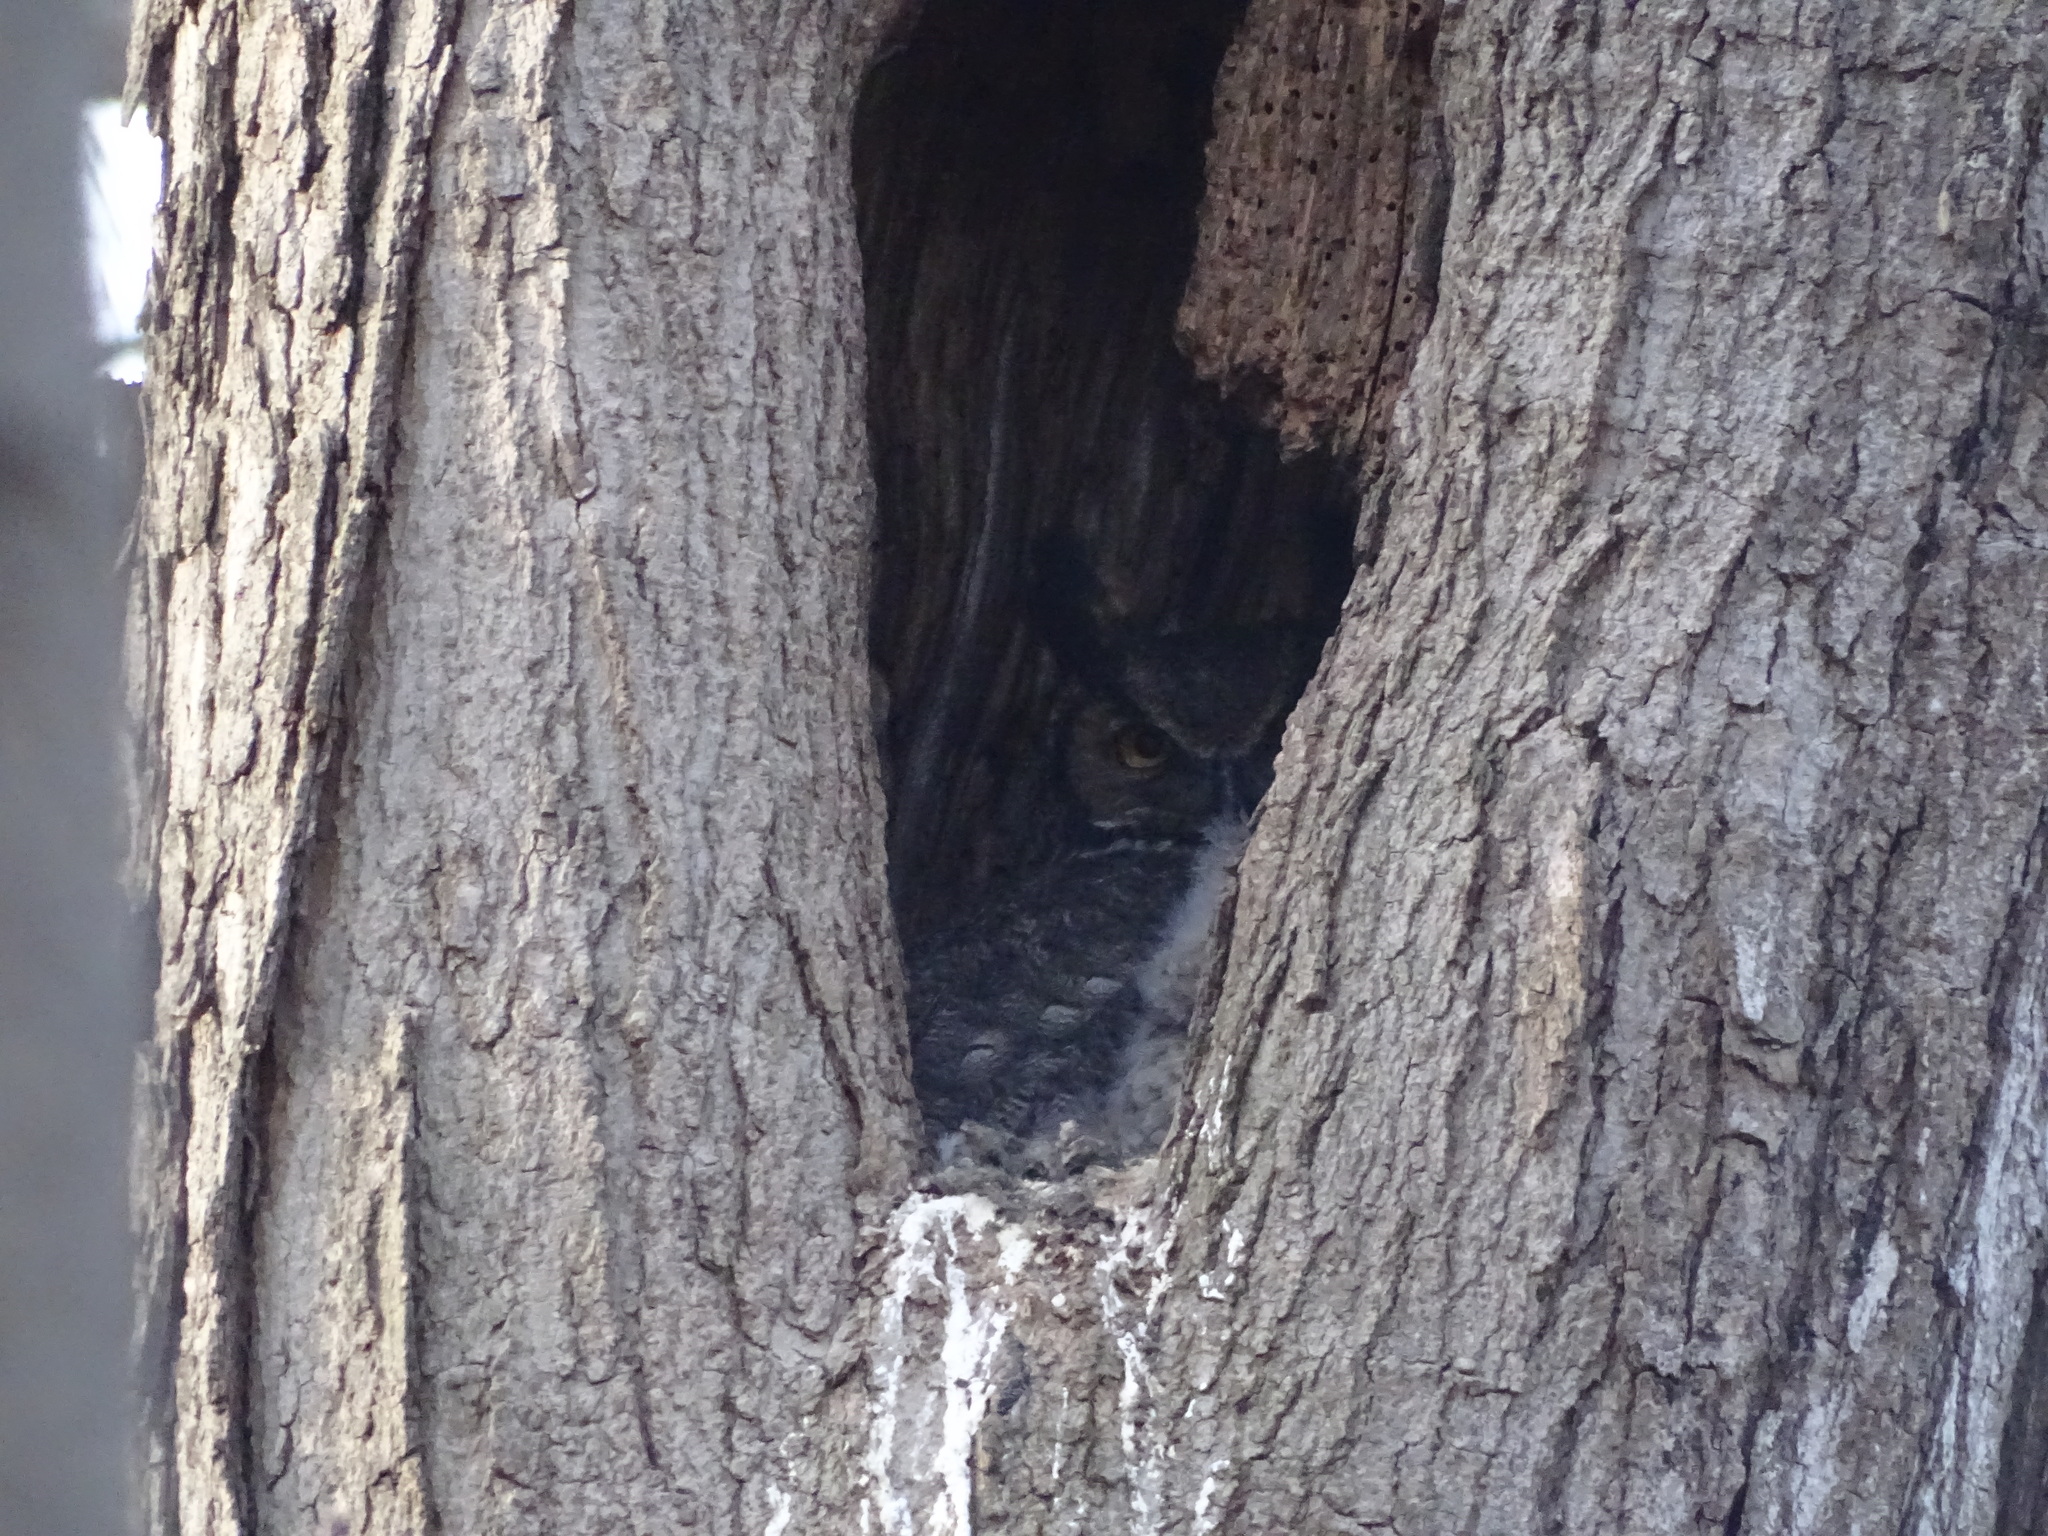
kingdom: Animalia
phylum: Chordata
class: Aves
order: Strigiformes
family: Strigidae
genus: Bubo
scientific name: Bubo virginianus
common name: Great horned owl
